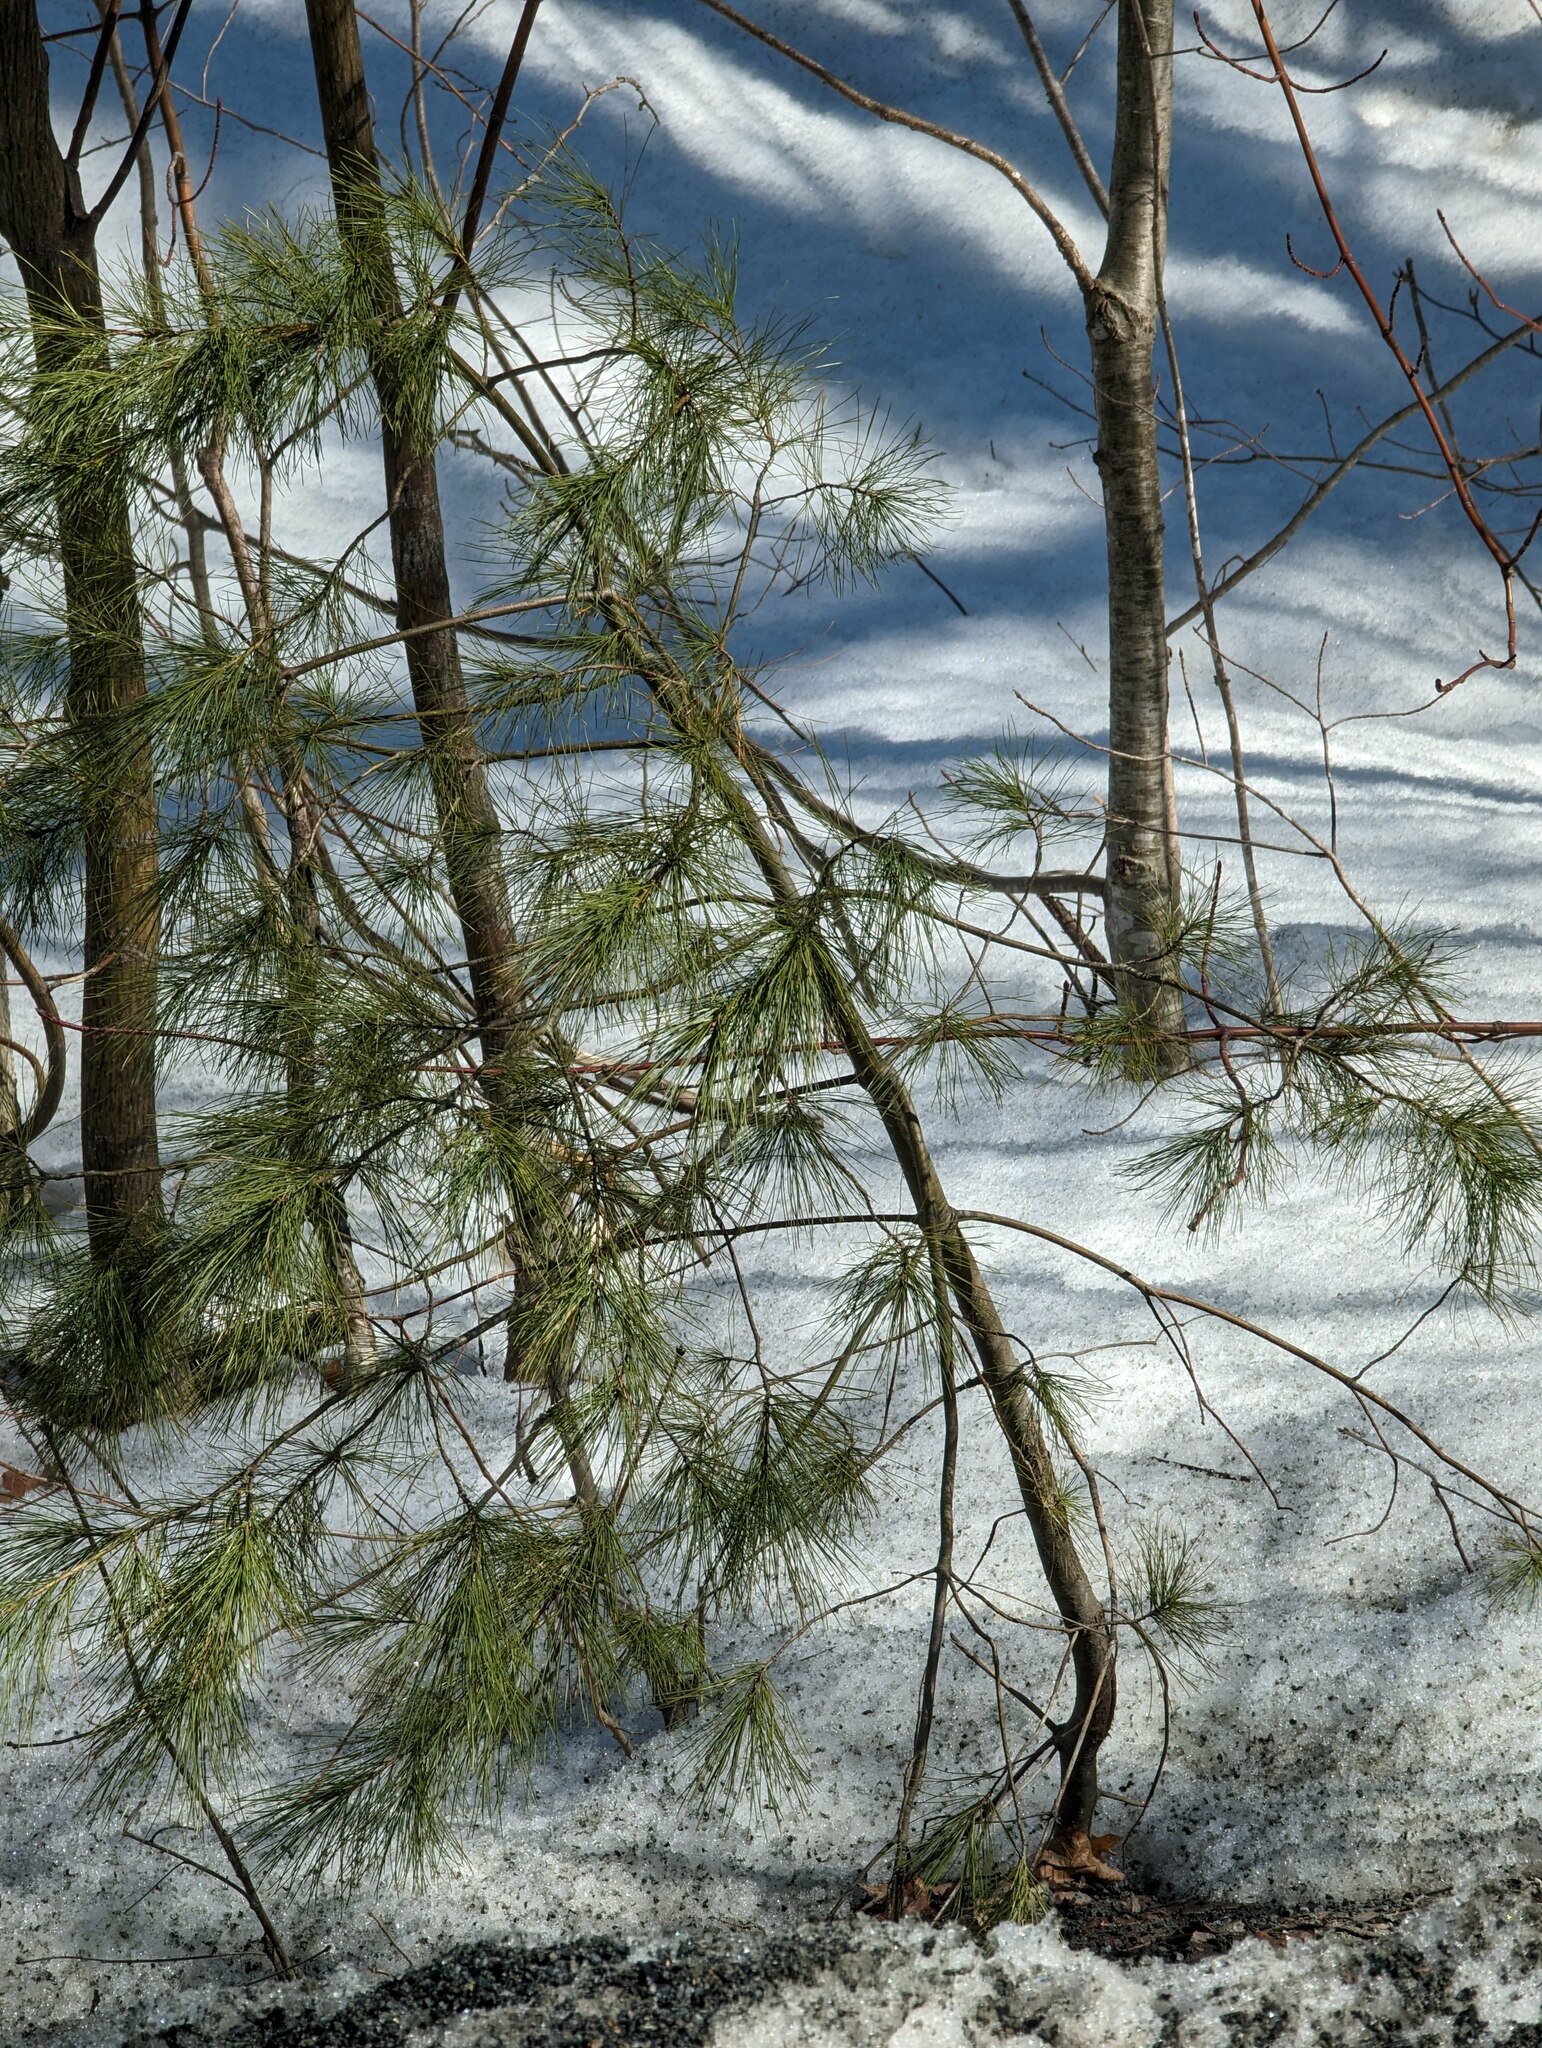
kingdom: Plantae
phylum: Tracheophyta
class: Pinopsida
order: Pinales
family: Pinaceae
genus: Pinus
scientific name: Pinus strobus
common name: Weymouth pine
